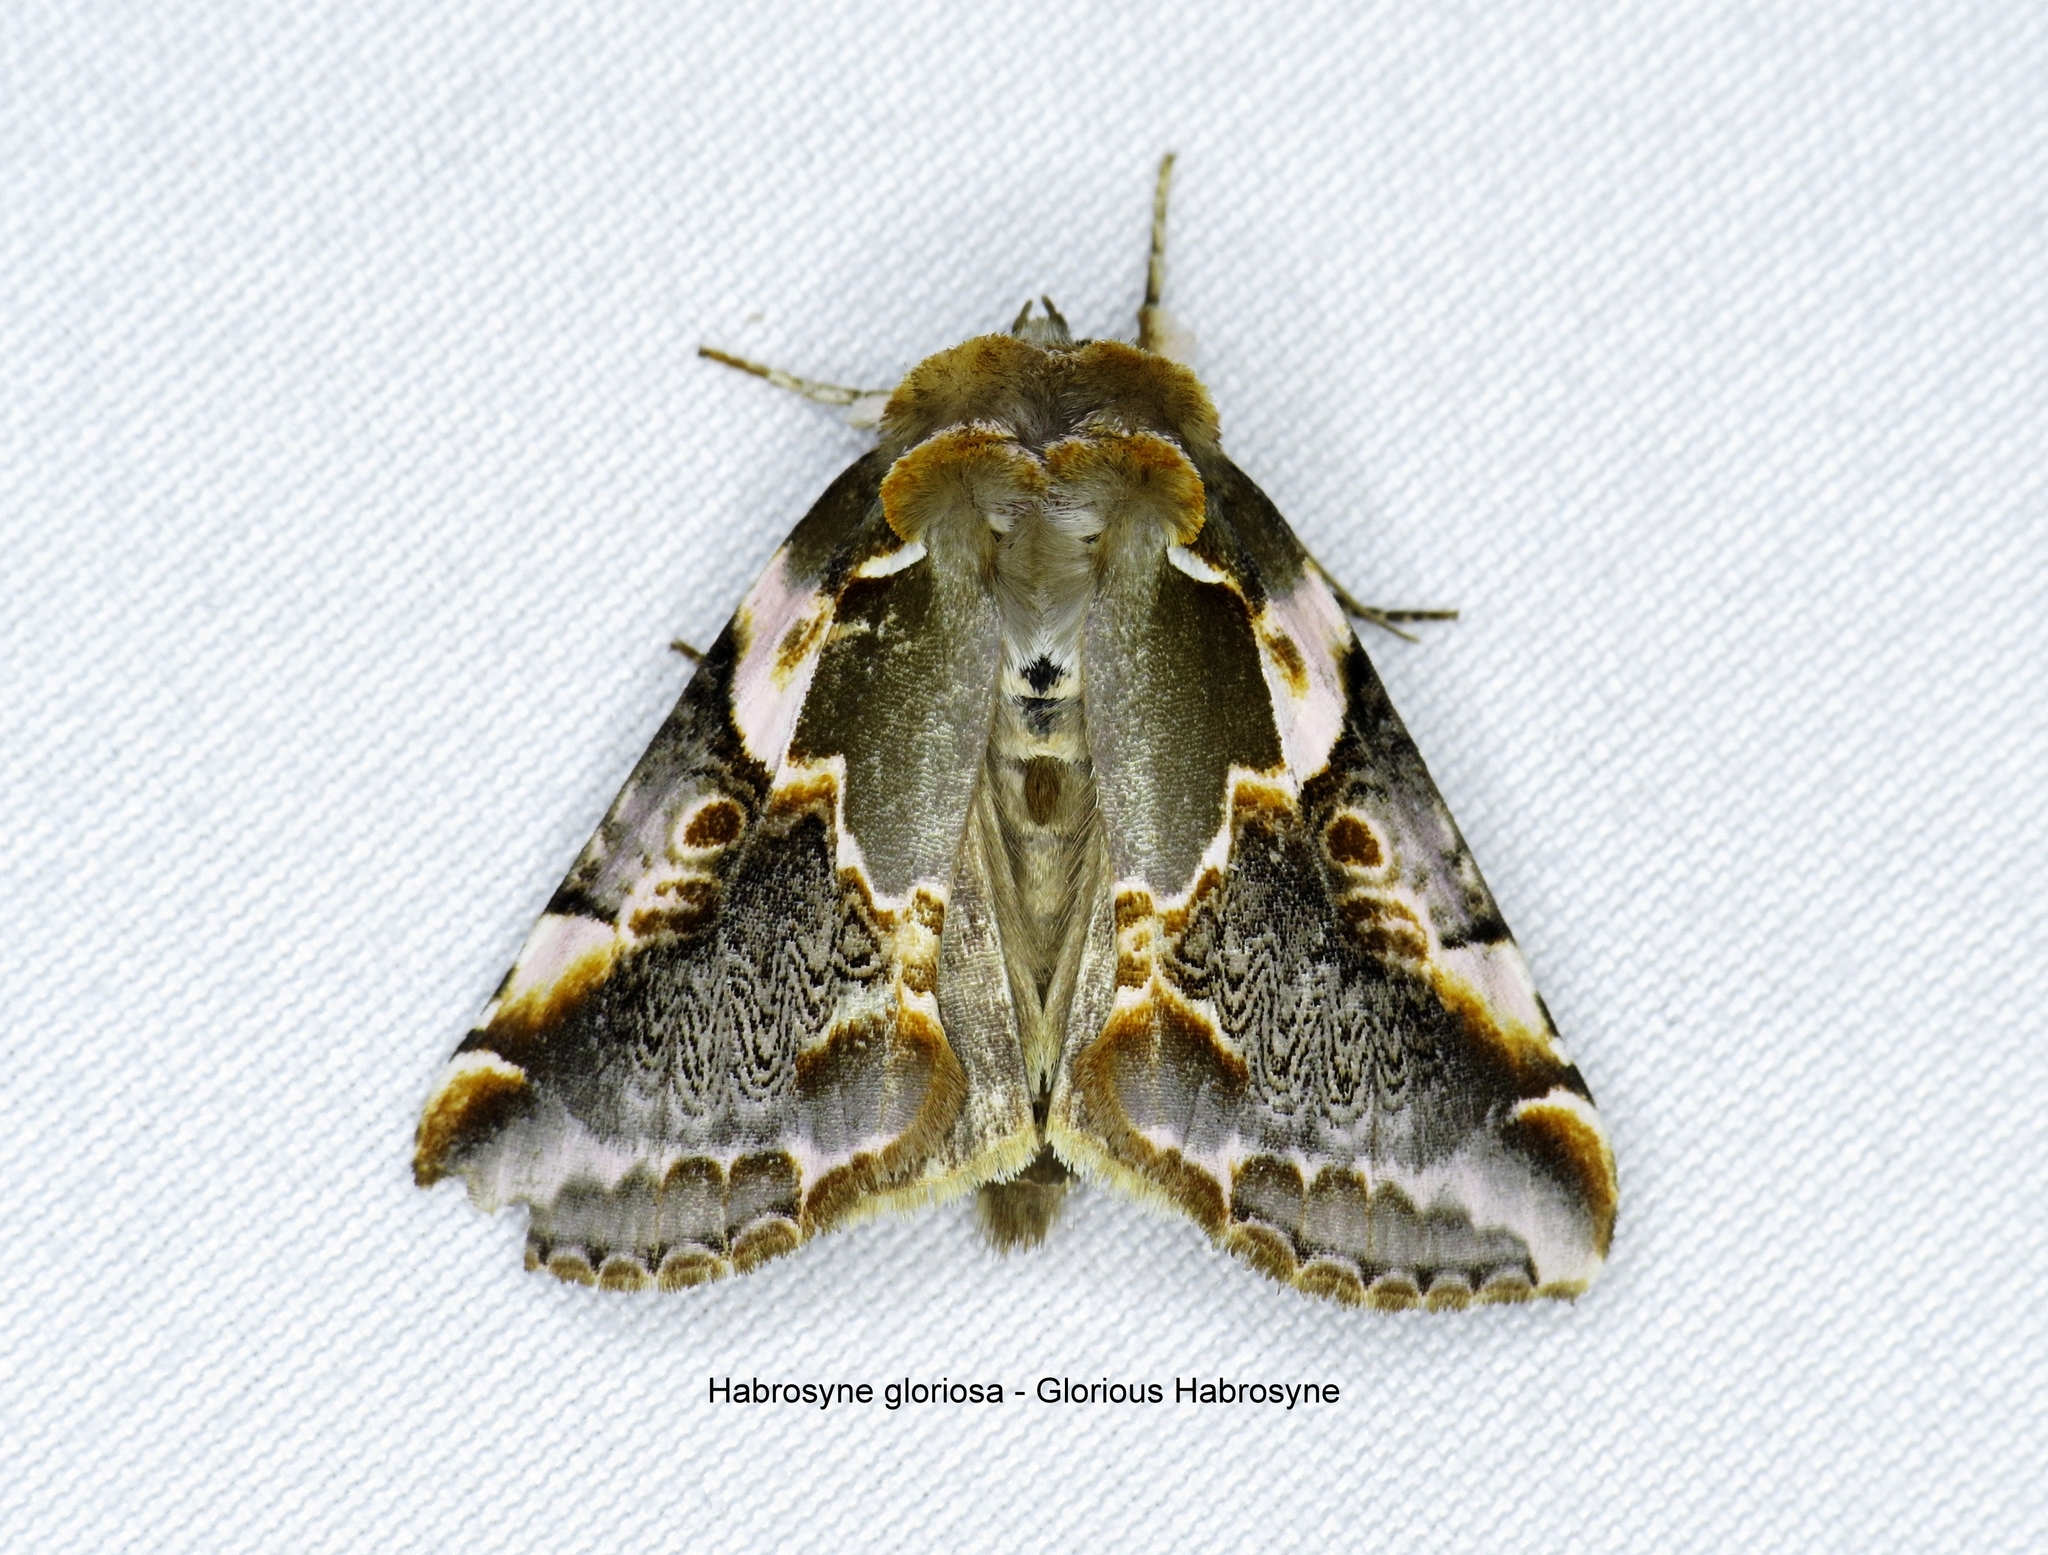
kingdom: Animalia
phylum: Arthropoda
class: Insecta
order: Lepidoptera
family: Drepanidae
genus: Habrosyne
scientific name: Habrosyne gloriosa
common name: Glorious habrosyne moth
